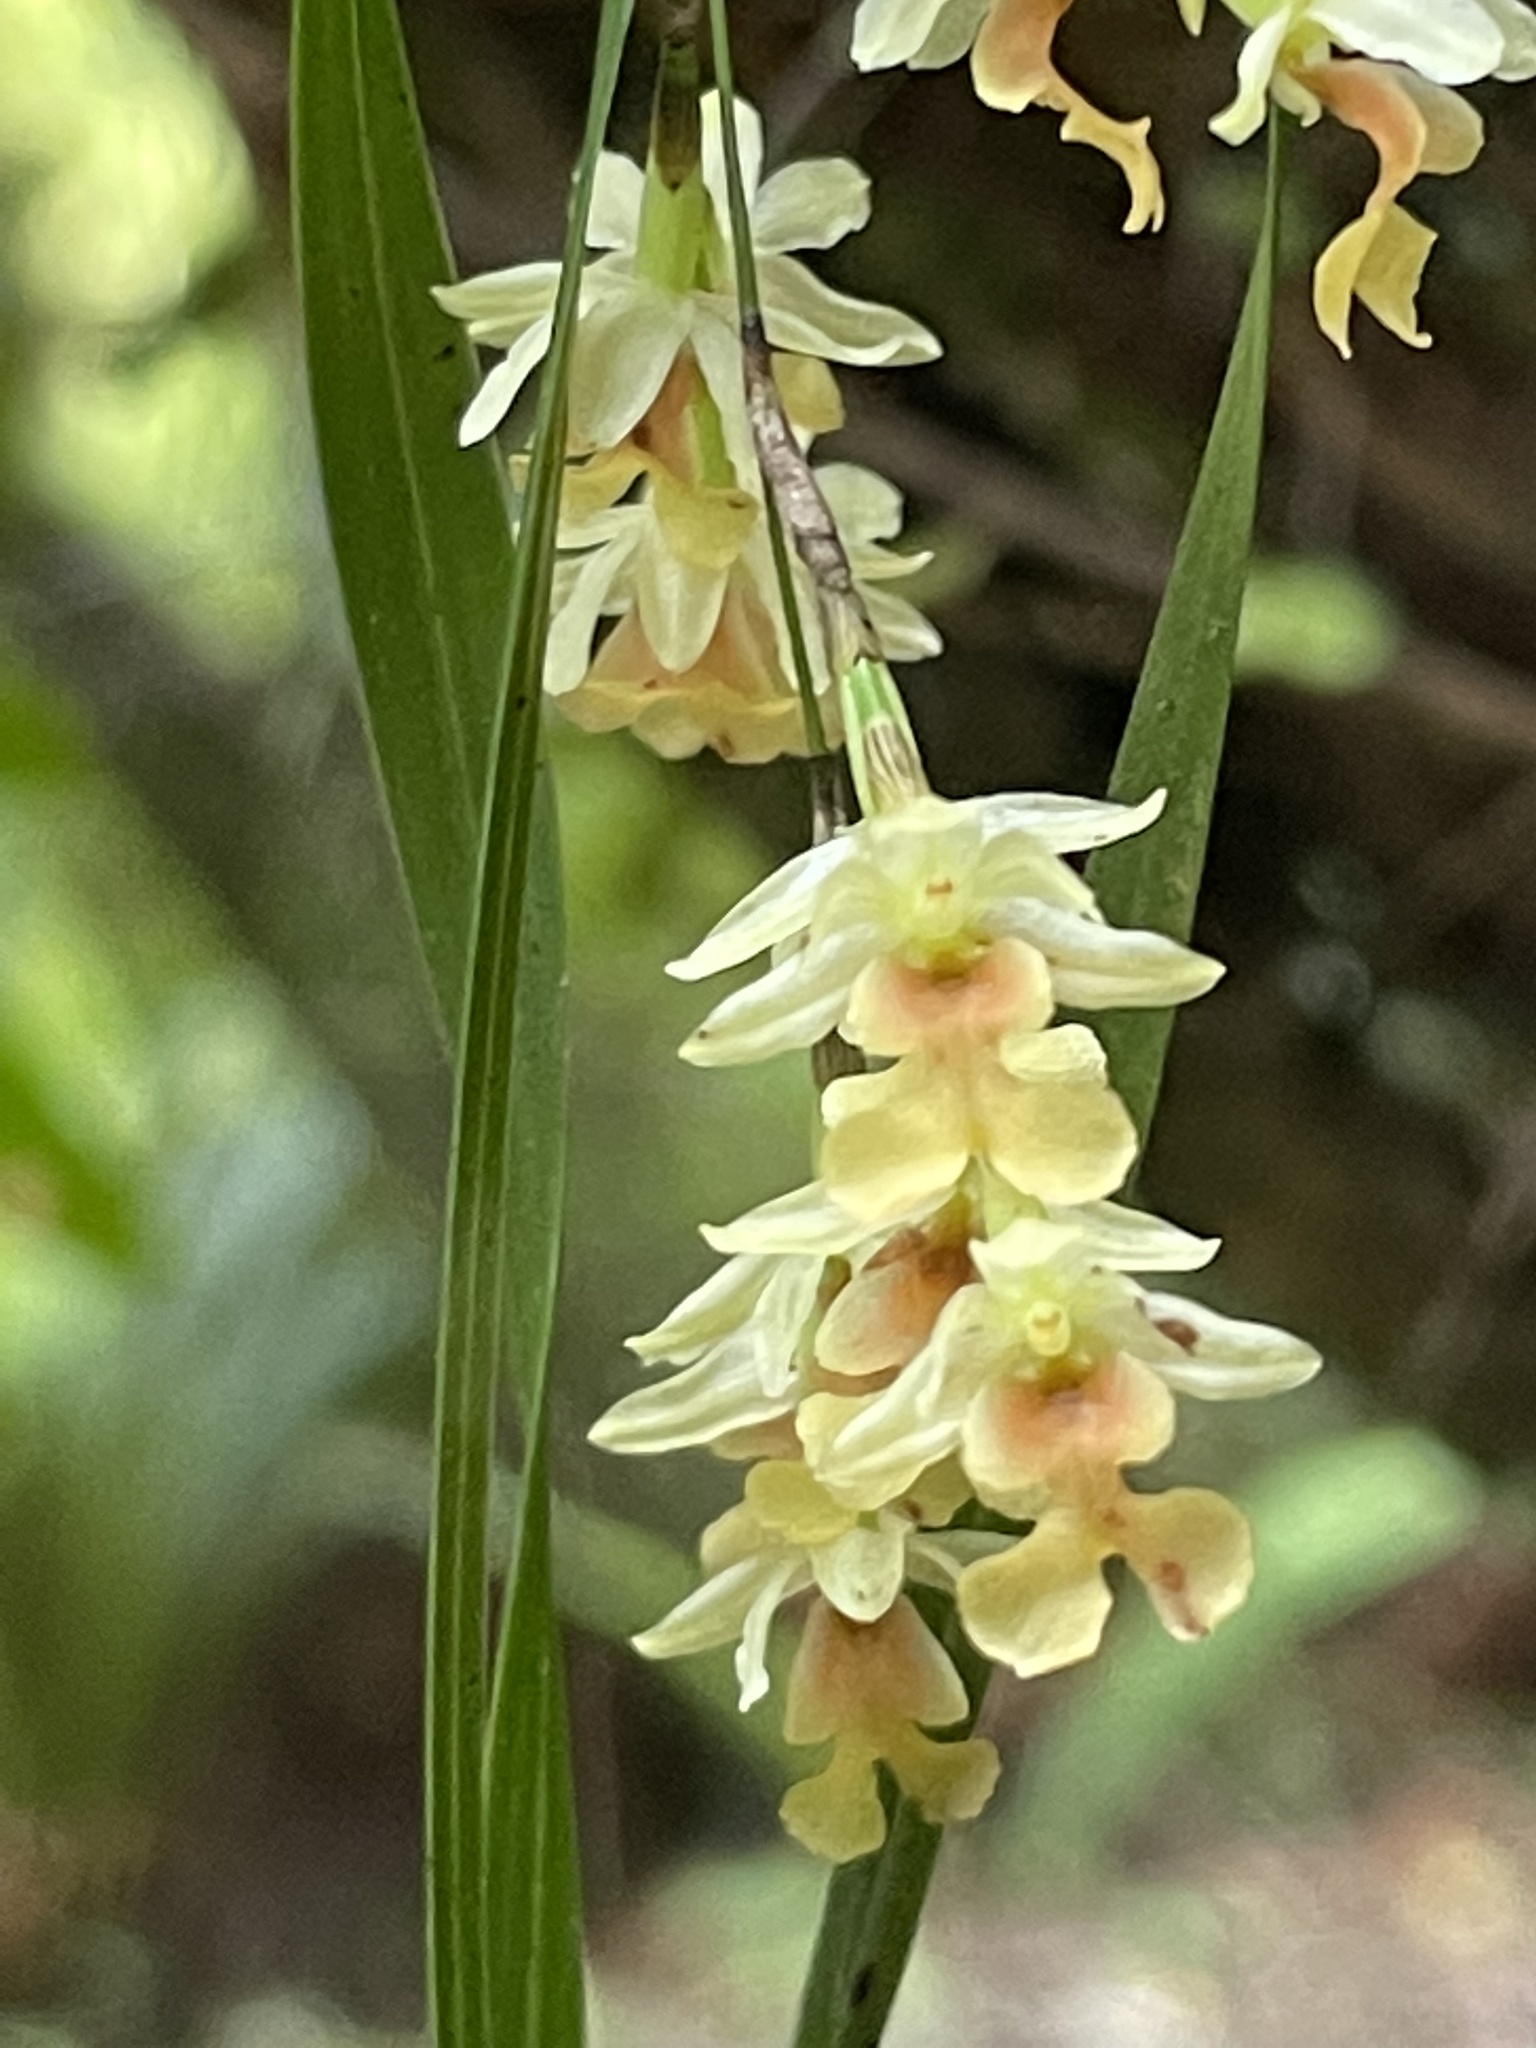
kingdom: Plantae
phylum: Tracheophyta
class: Liliopsida
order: Asparagales
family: Orchidaceae
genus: Earina
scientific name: Earina mucronata
